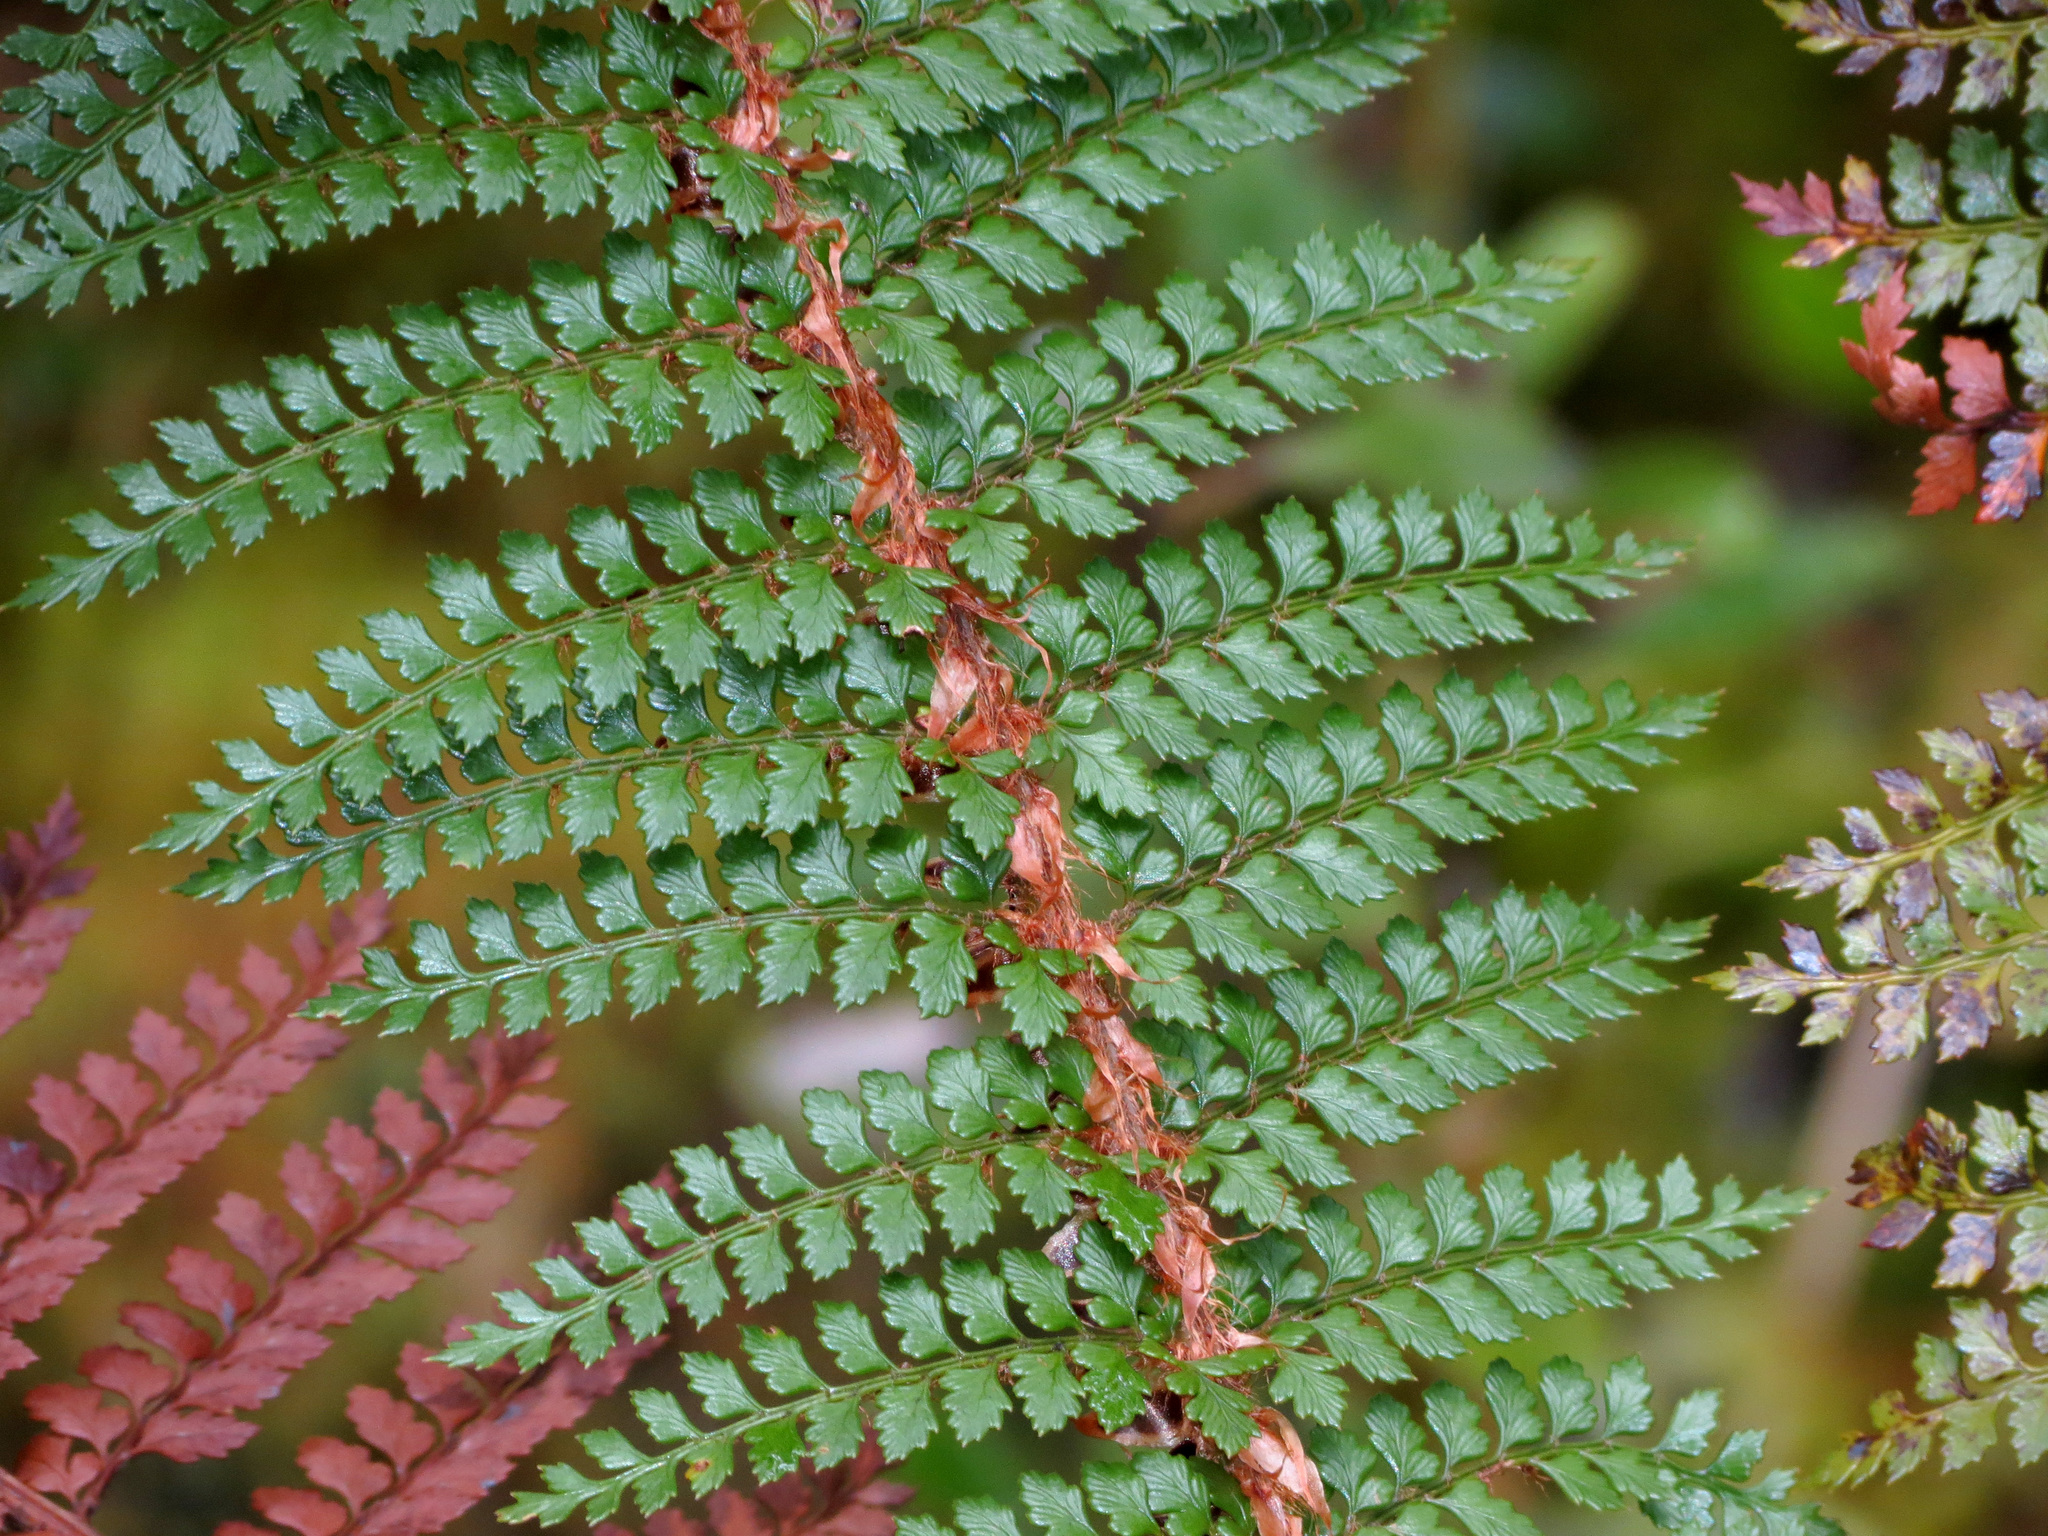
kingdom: Plantae
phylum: Tracheophyta
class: Polypodiopsida
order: Polypodiales
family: Dryopteridaceae
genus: Polystichum
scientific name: Polystichum vestitum
